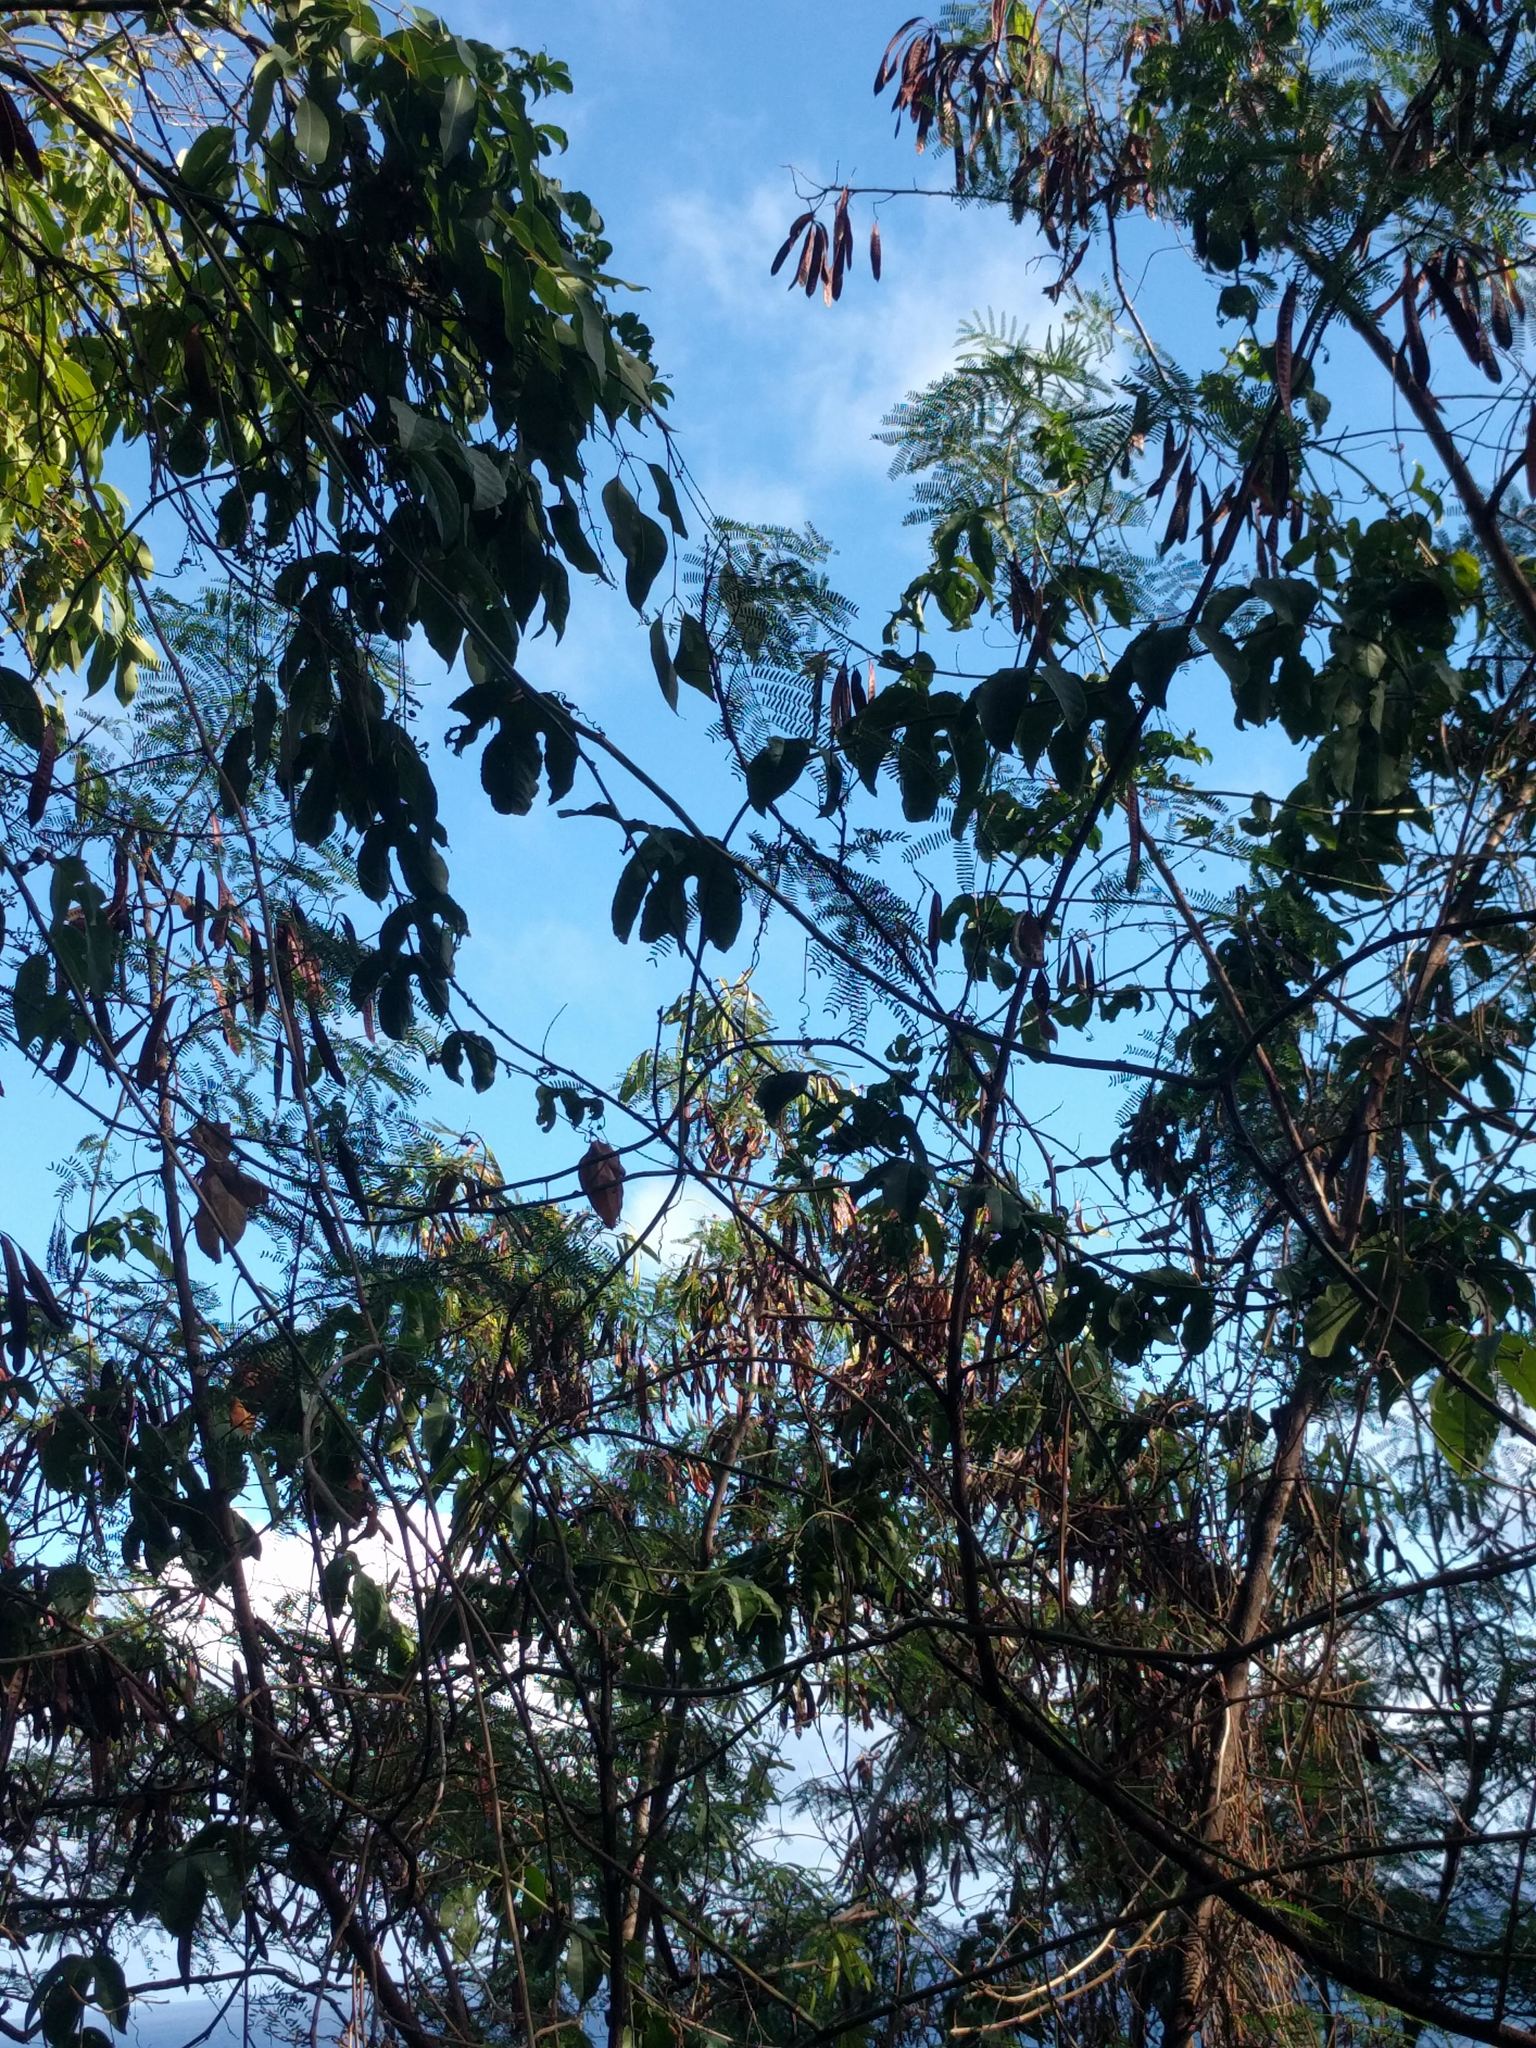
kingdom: Plantae
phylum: Tracheophyta
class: Magnoliopsida
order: Malpighiales
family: Passifloraceae
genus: Passiflora
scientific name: Passiflora edulis
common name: Purple granadilla
